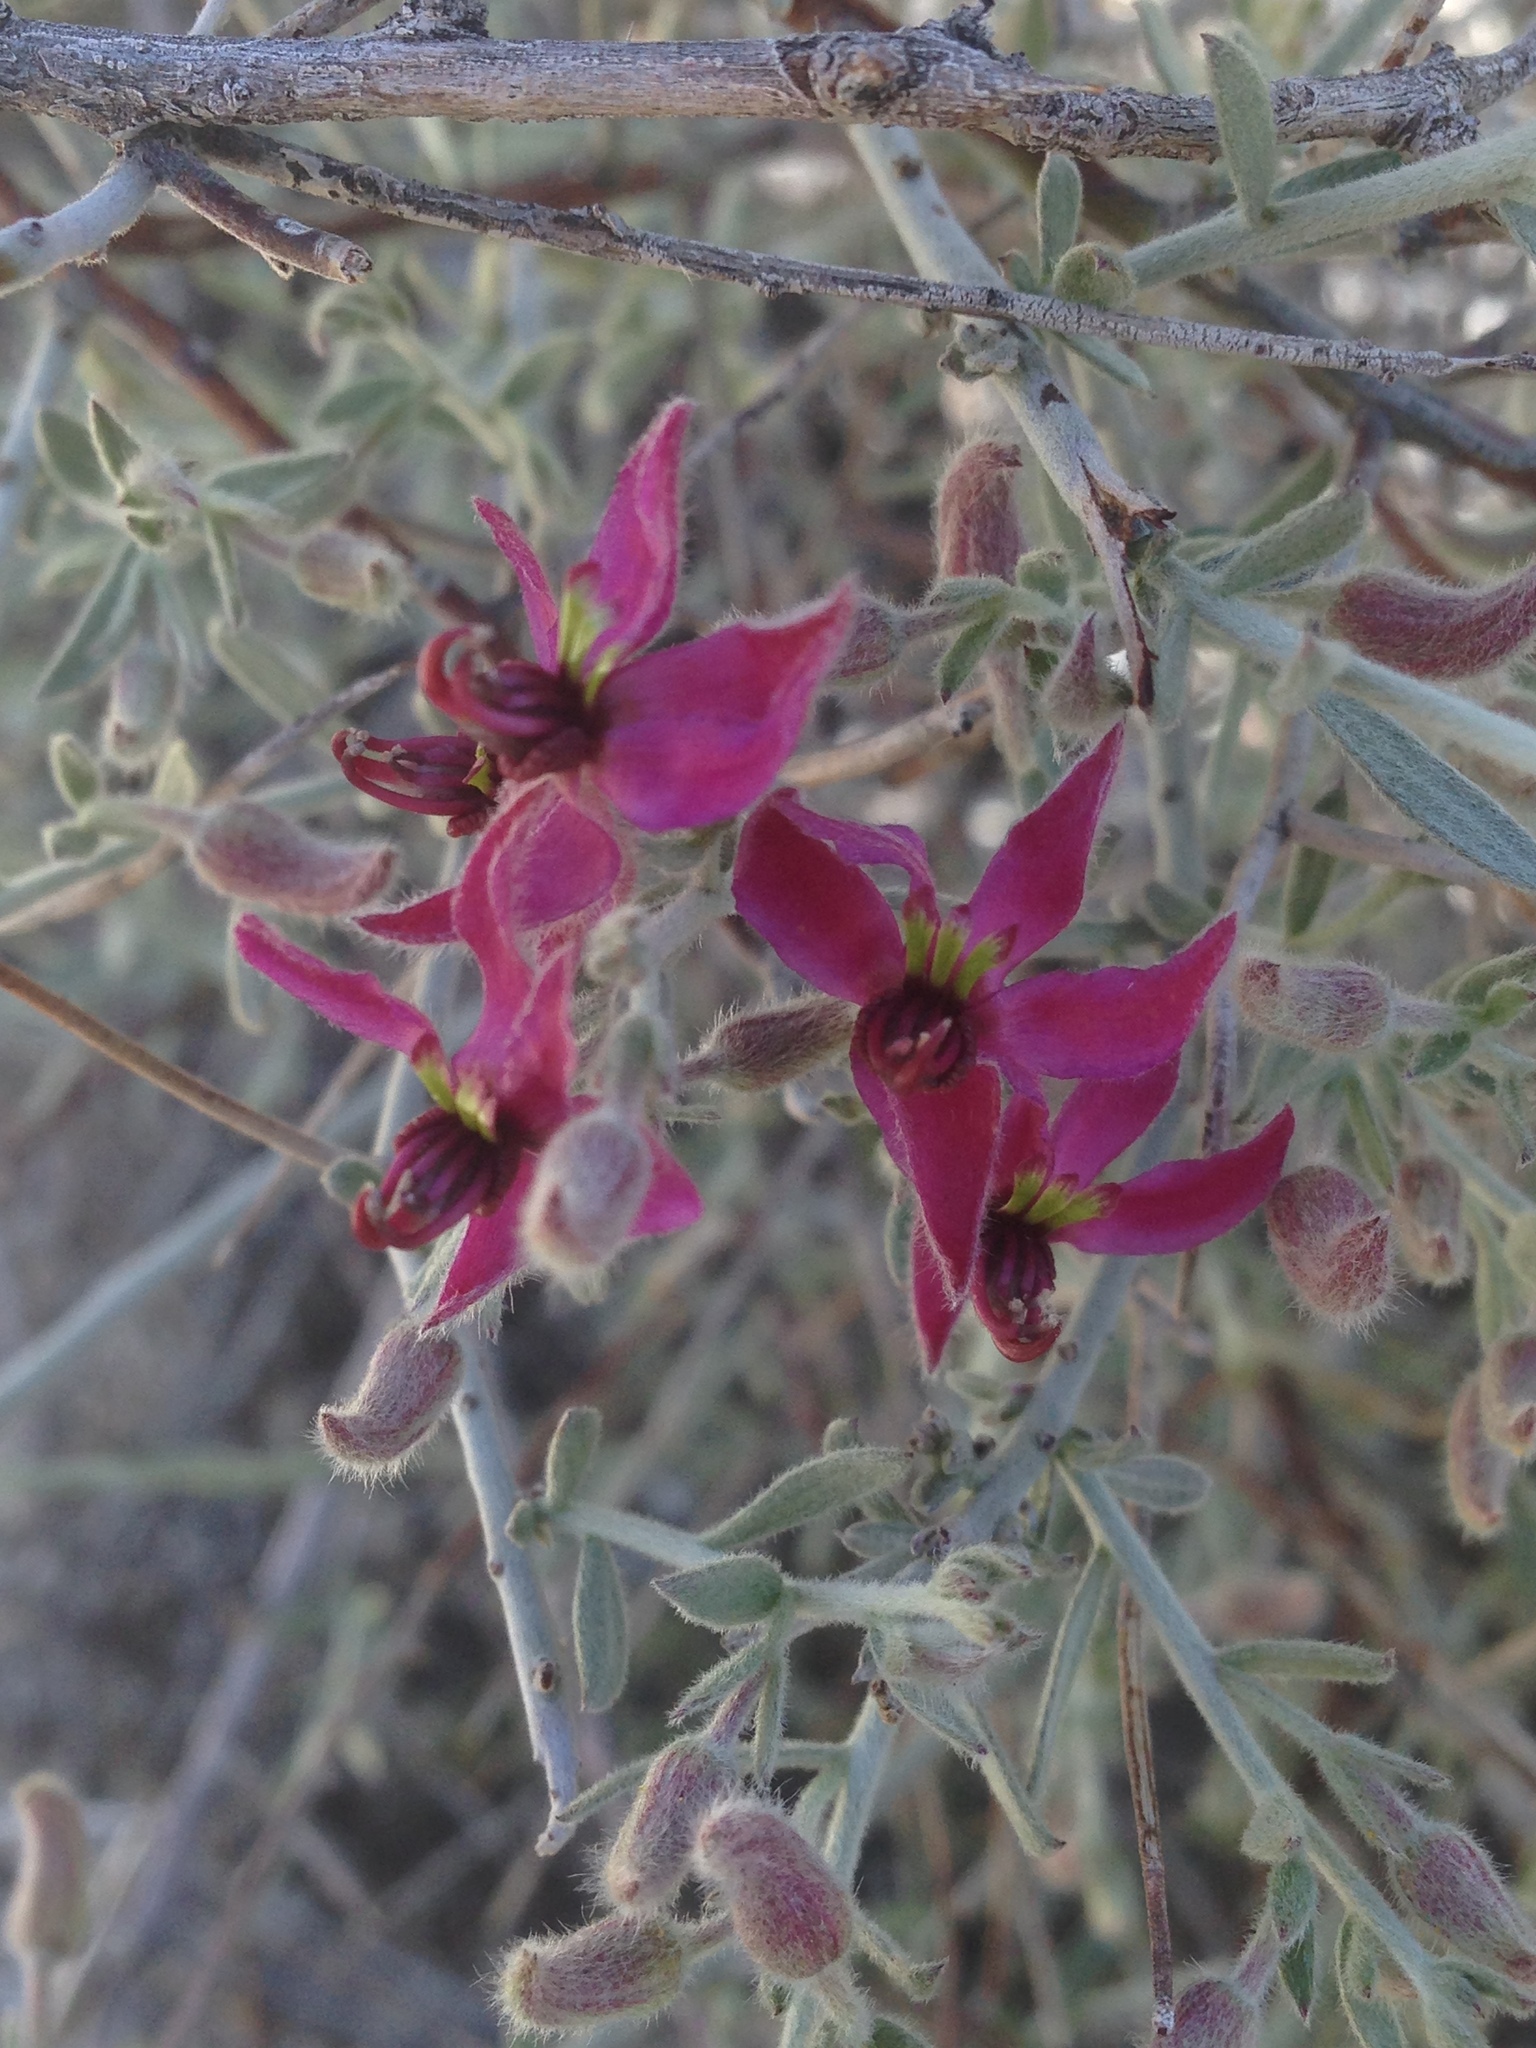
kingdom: Plantae
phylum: Tracheophyta
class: Magnoliopsida
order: Zygophyllales
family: Krameriaceae
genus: Krameria
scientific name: Krameria bicolor
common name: White ratany
